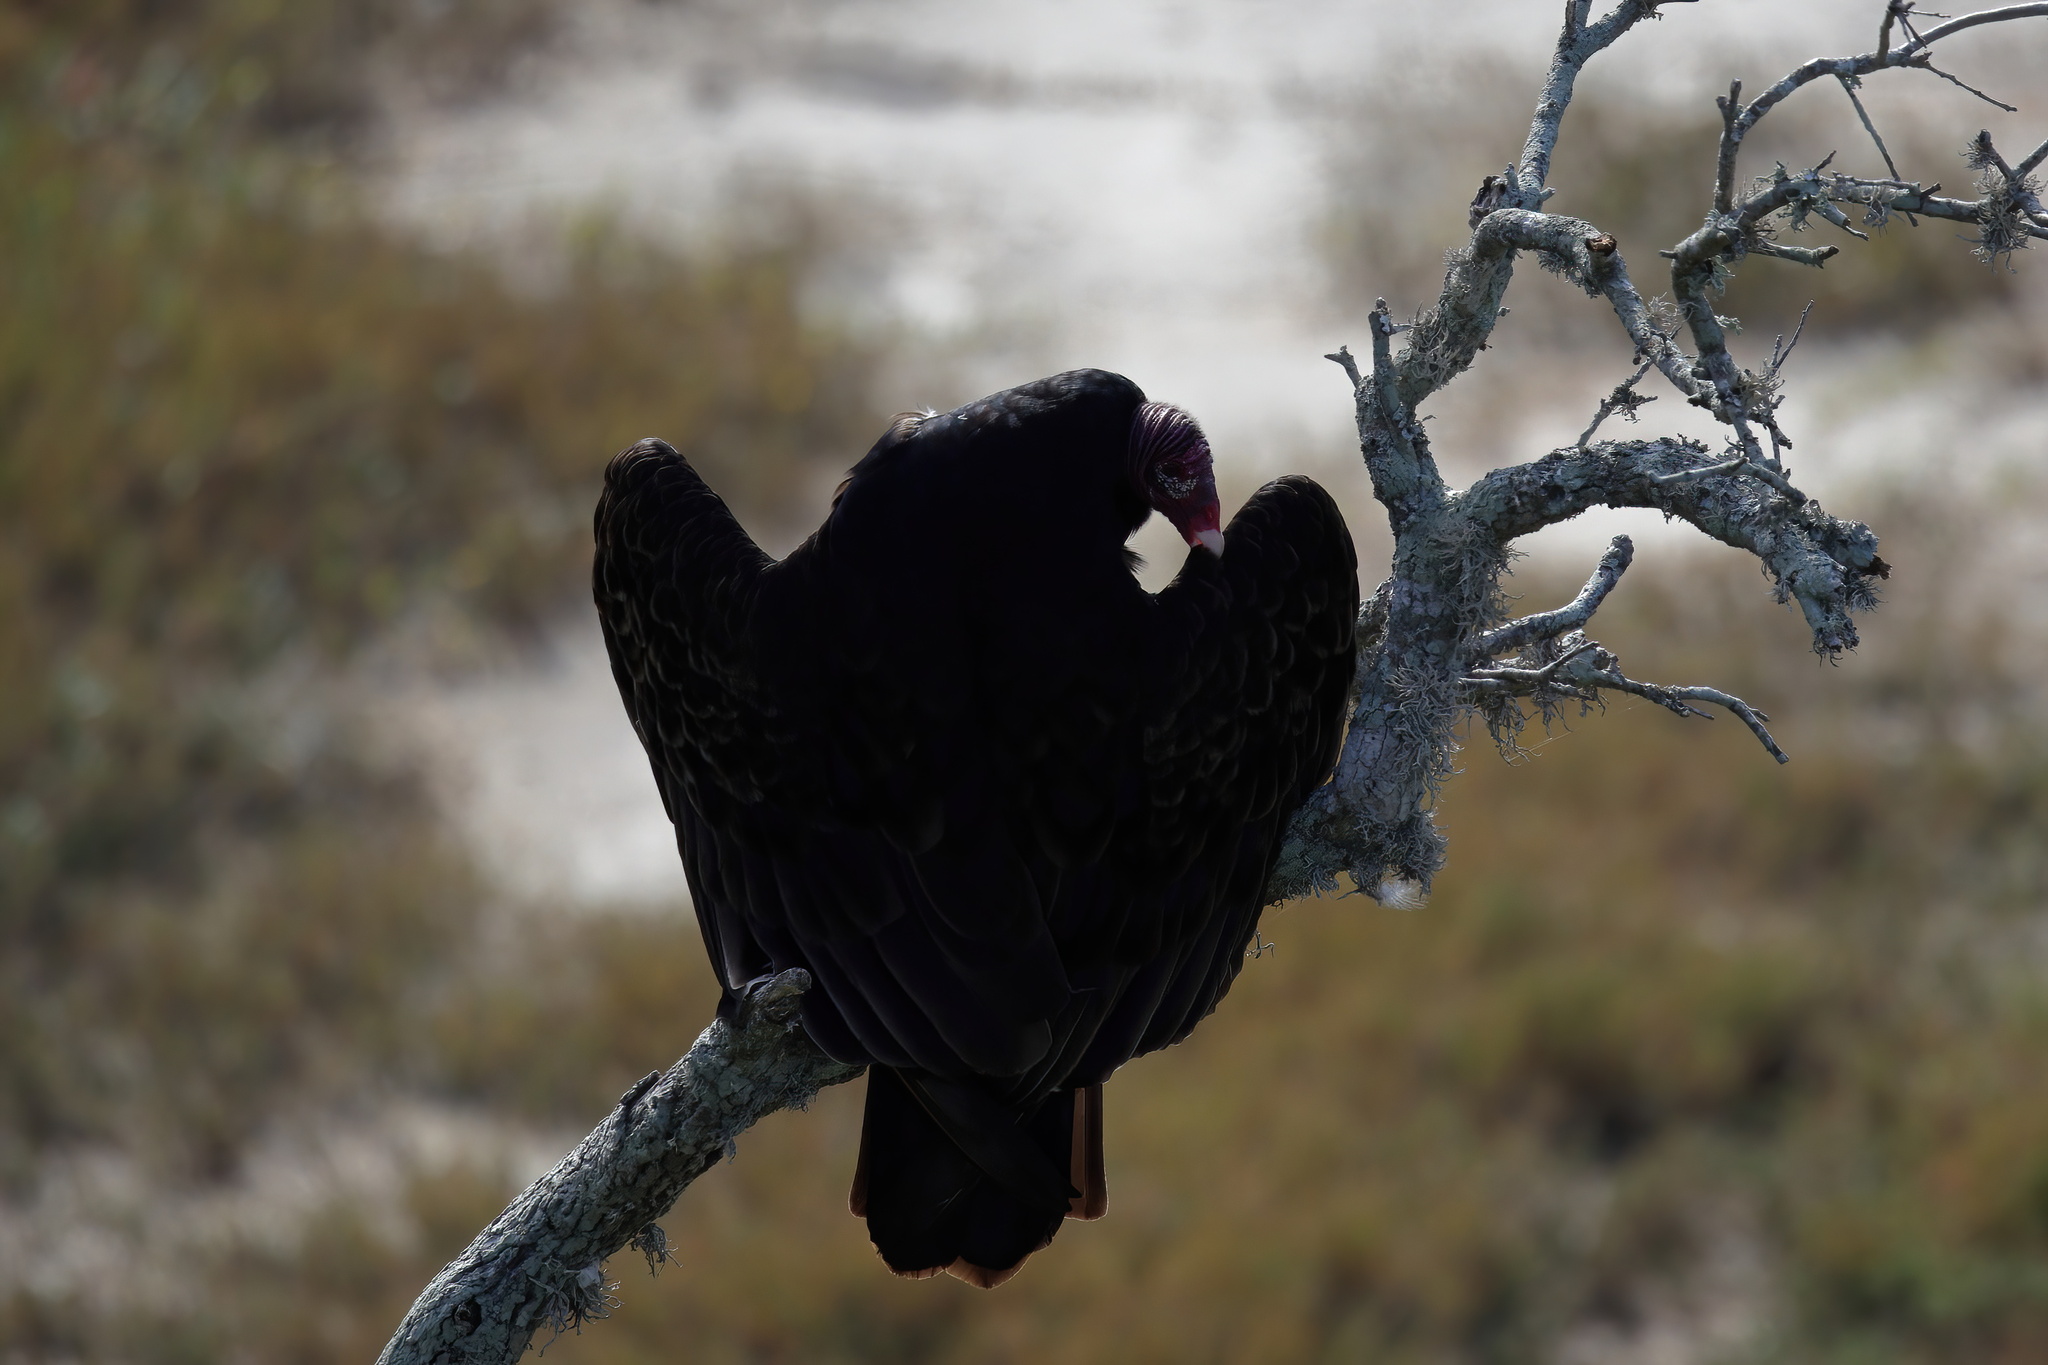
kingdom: Animalia
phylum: Chordata
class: Aves
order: Accipitriformes
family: Cathartidae
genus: Cathartes
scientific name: Cathartes aura
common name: Turkey vulture
